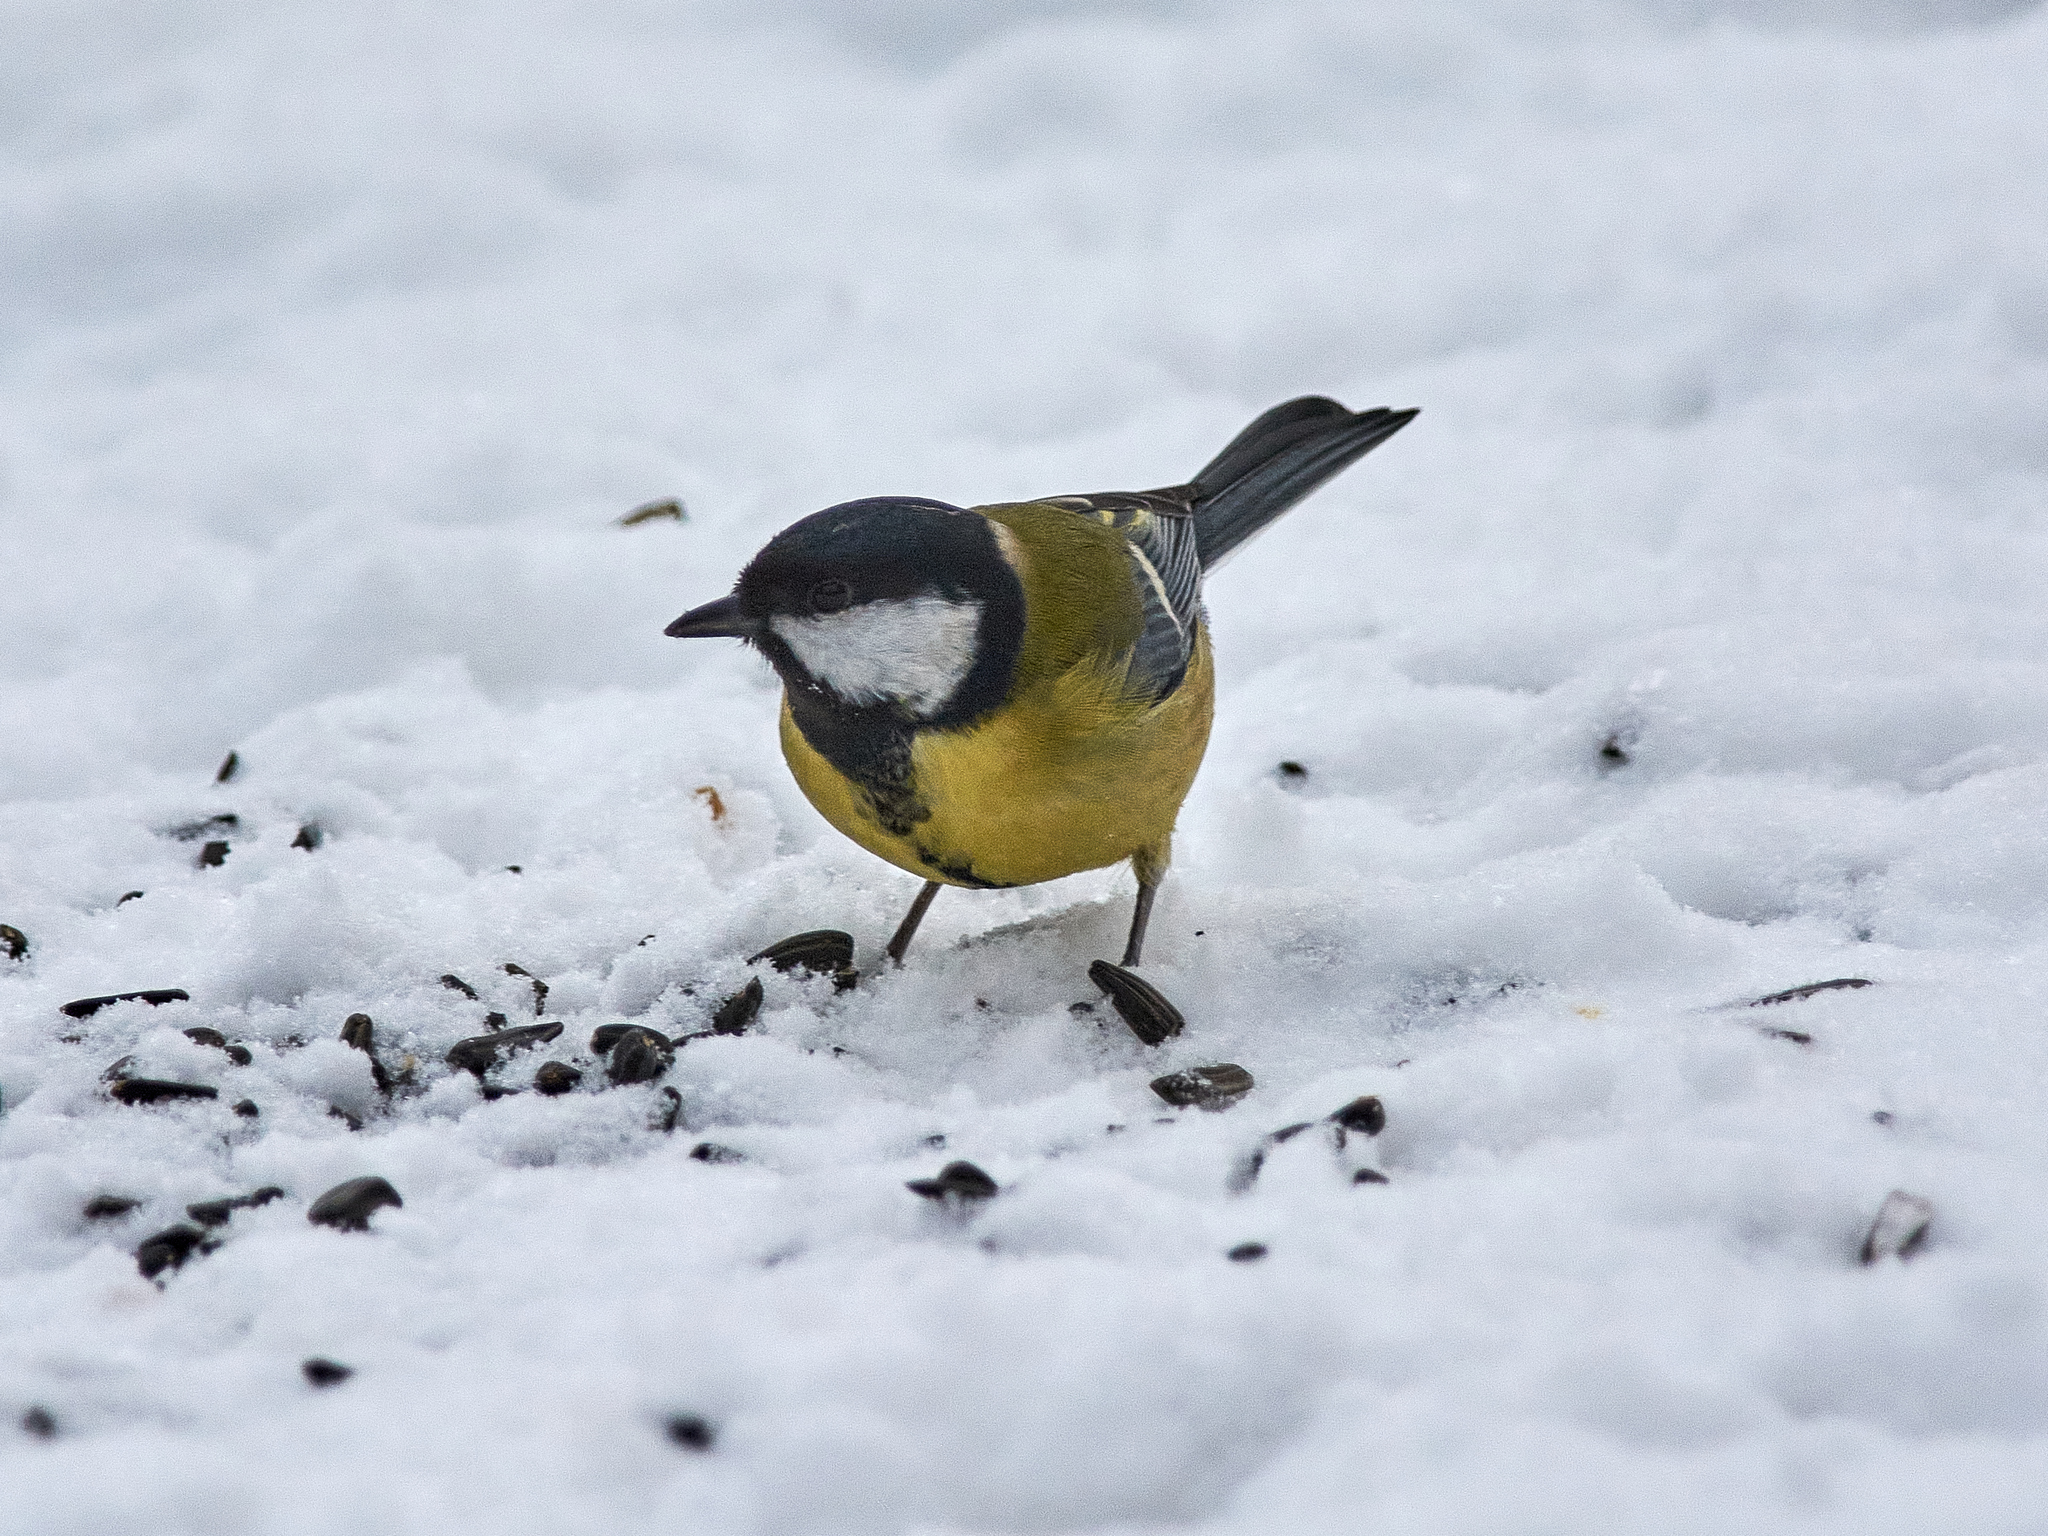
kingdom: Animalia
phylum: Chordata
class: Aves
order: Passeriformes
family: Paridae
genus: Parus
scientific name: Parus major
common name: Great tit
